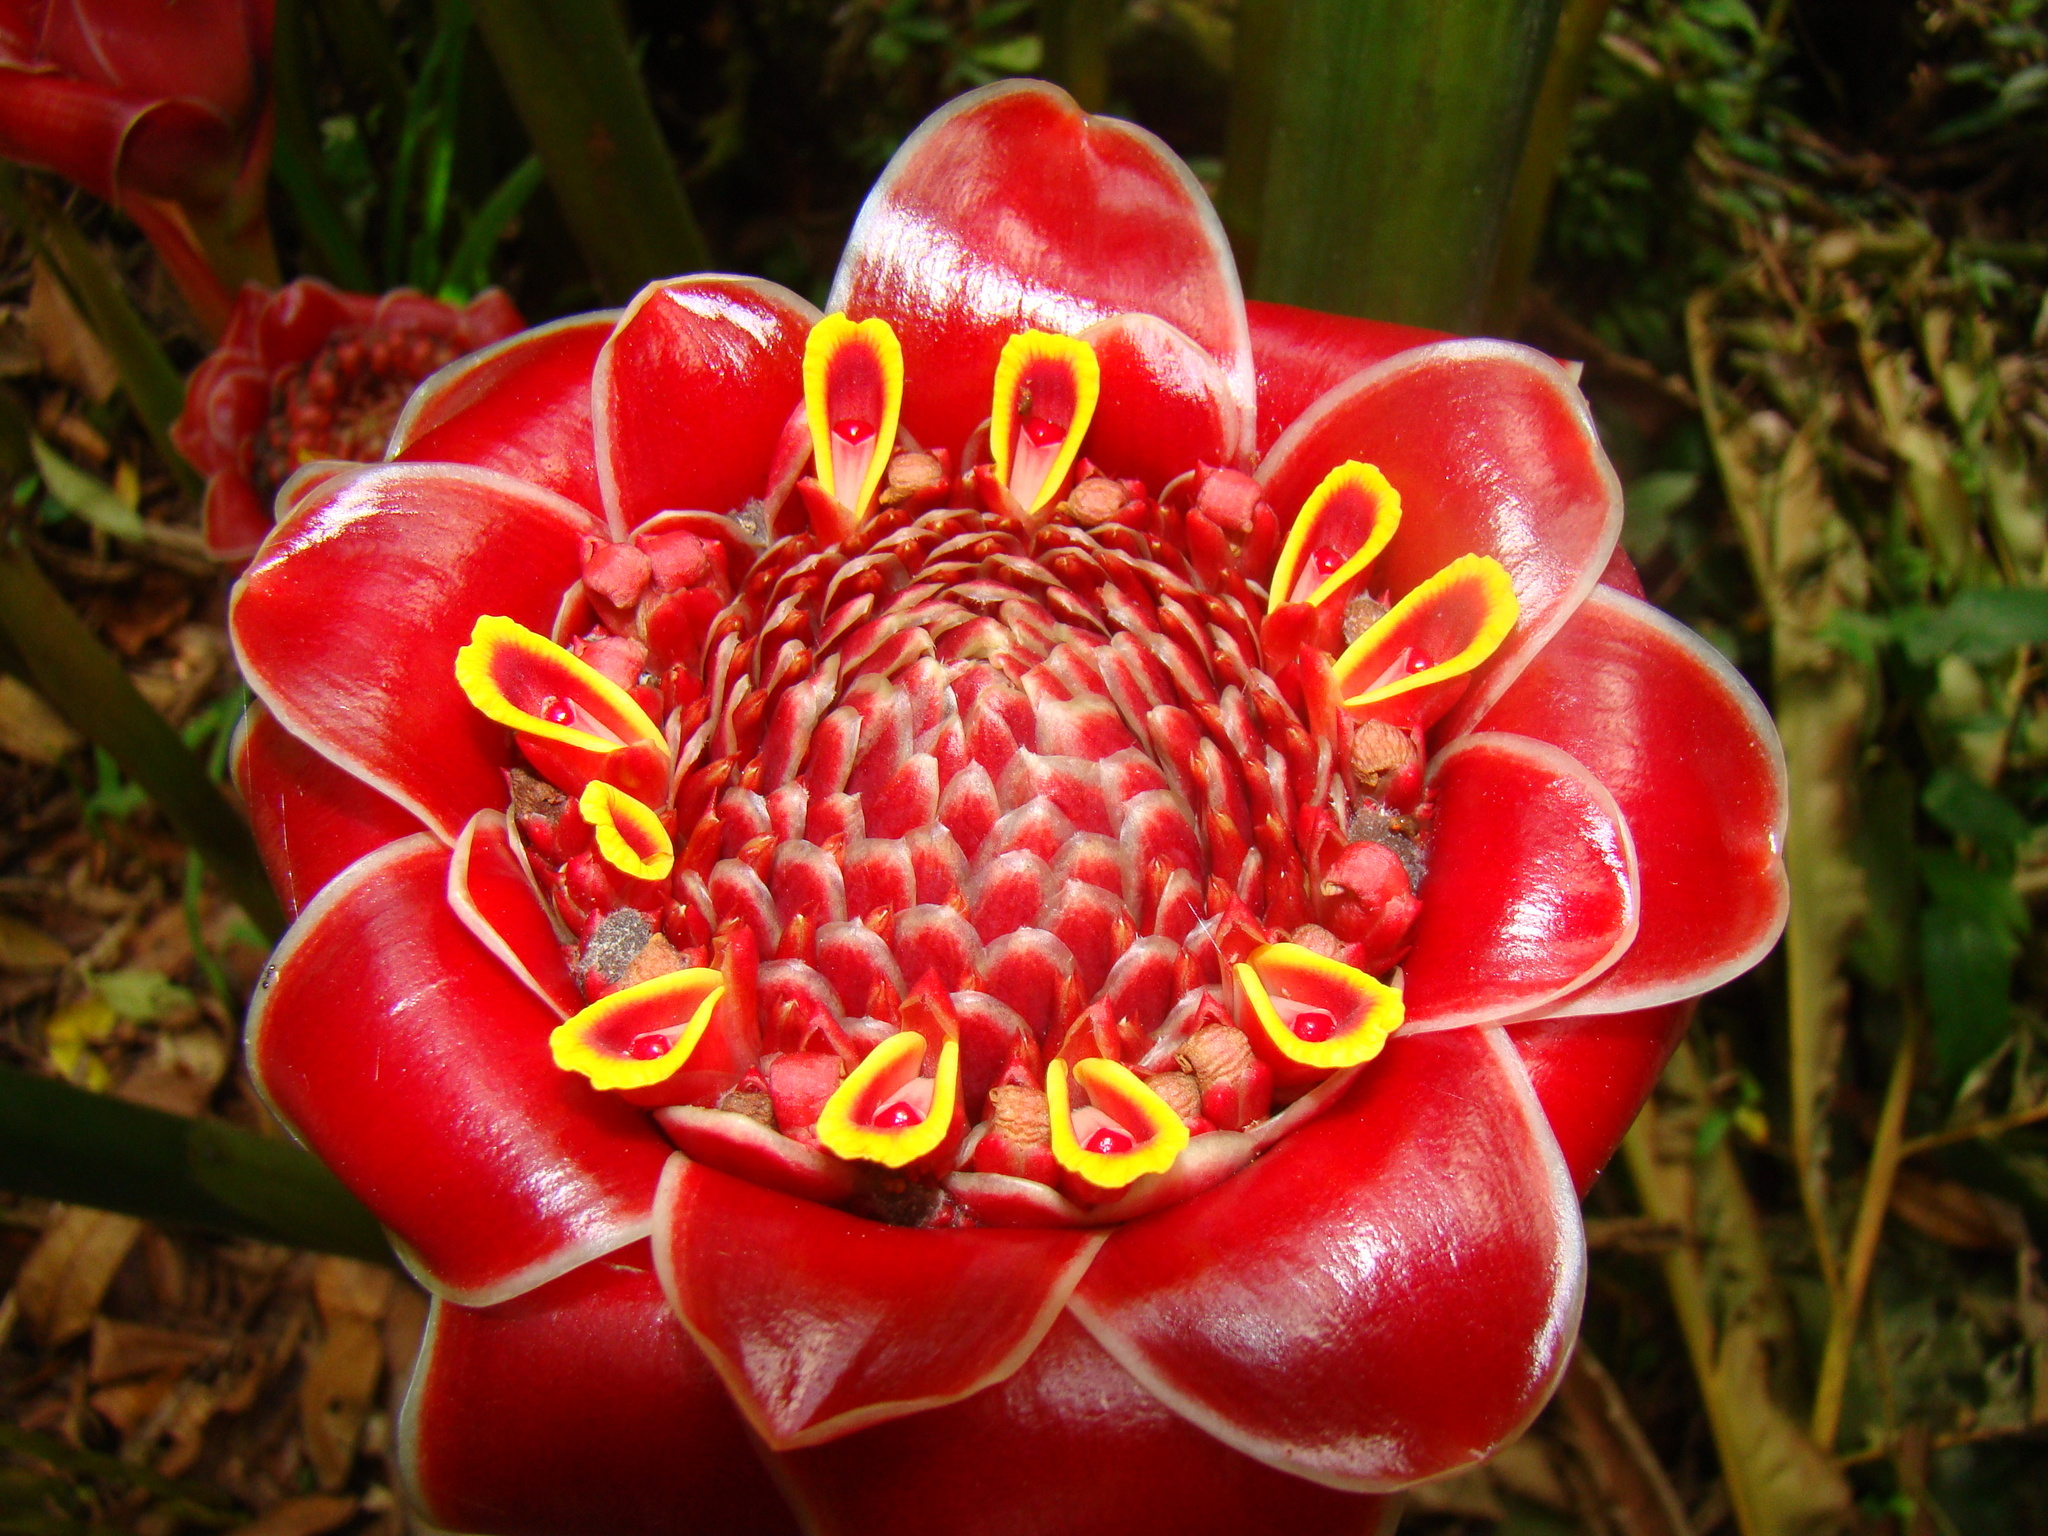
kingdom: Plantae
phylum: Tracheophyta
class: Liliopsida
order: Zingiberales
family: Zingiberaceae
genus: Etlingera
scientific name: Etlingera elatior
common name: Philippine waxflower
